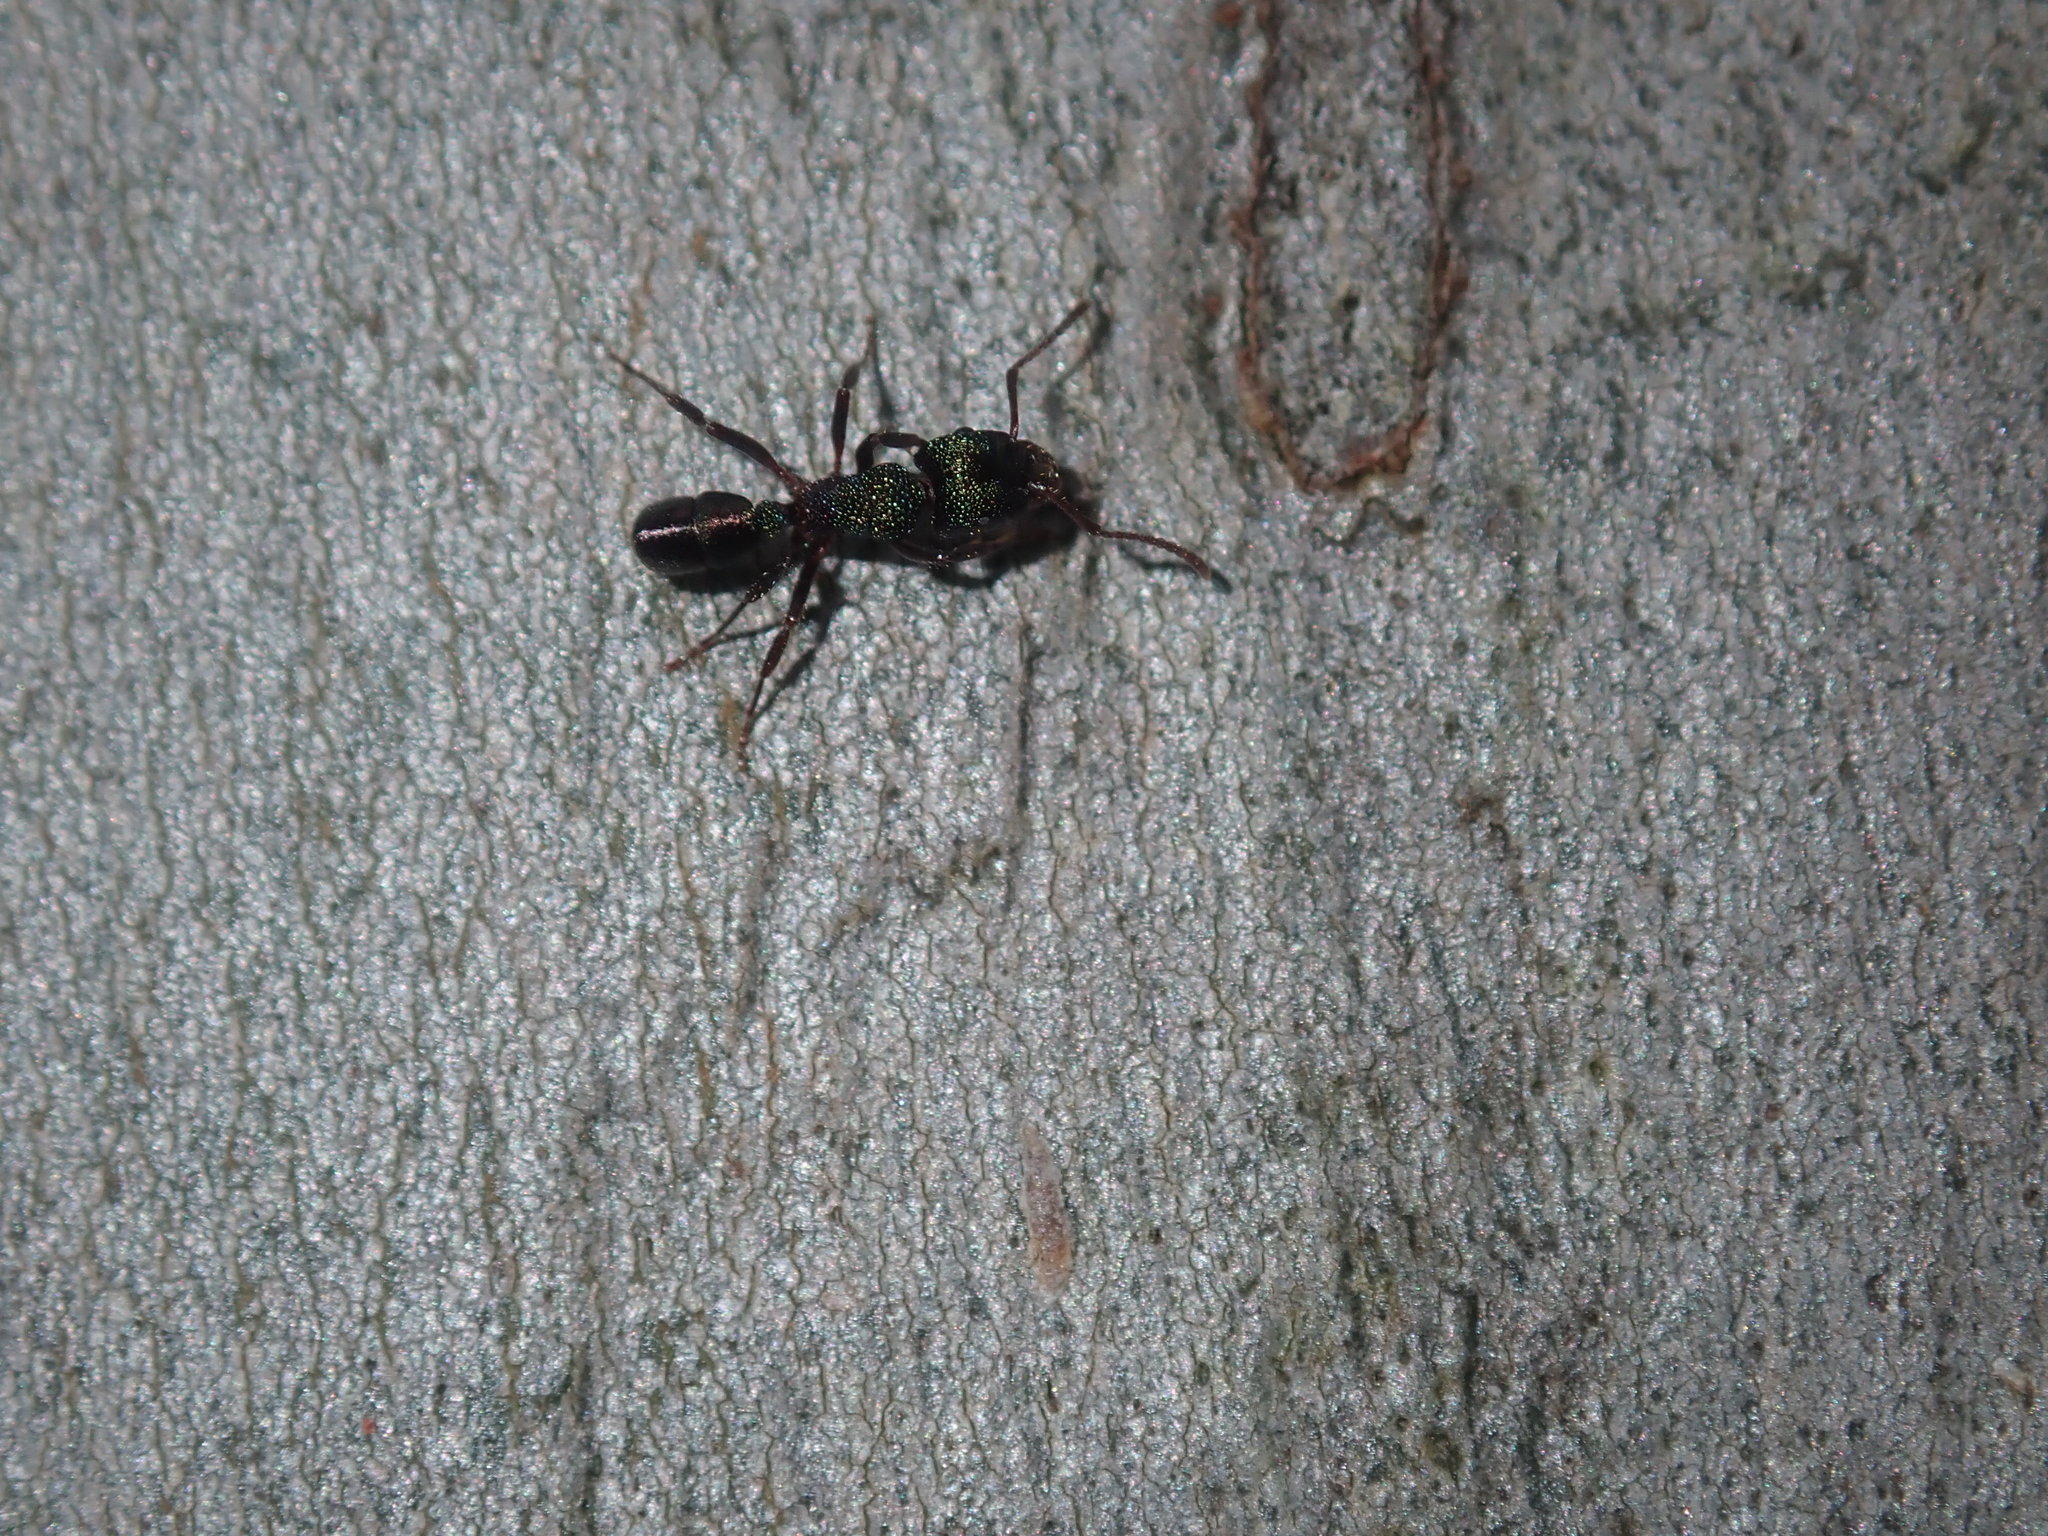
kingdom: Animalia
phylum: Arthropoda
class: Insecta
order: Hymenoptera
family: Formicidae
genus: Rhytidoponera
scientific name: Rhytidoponera metallica
